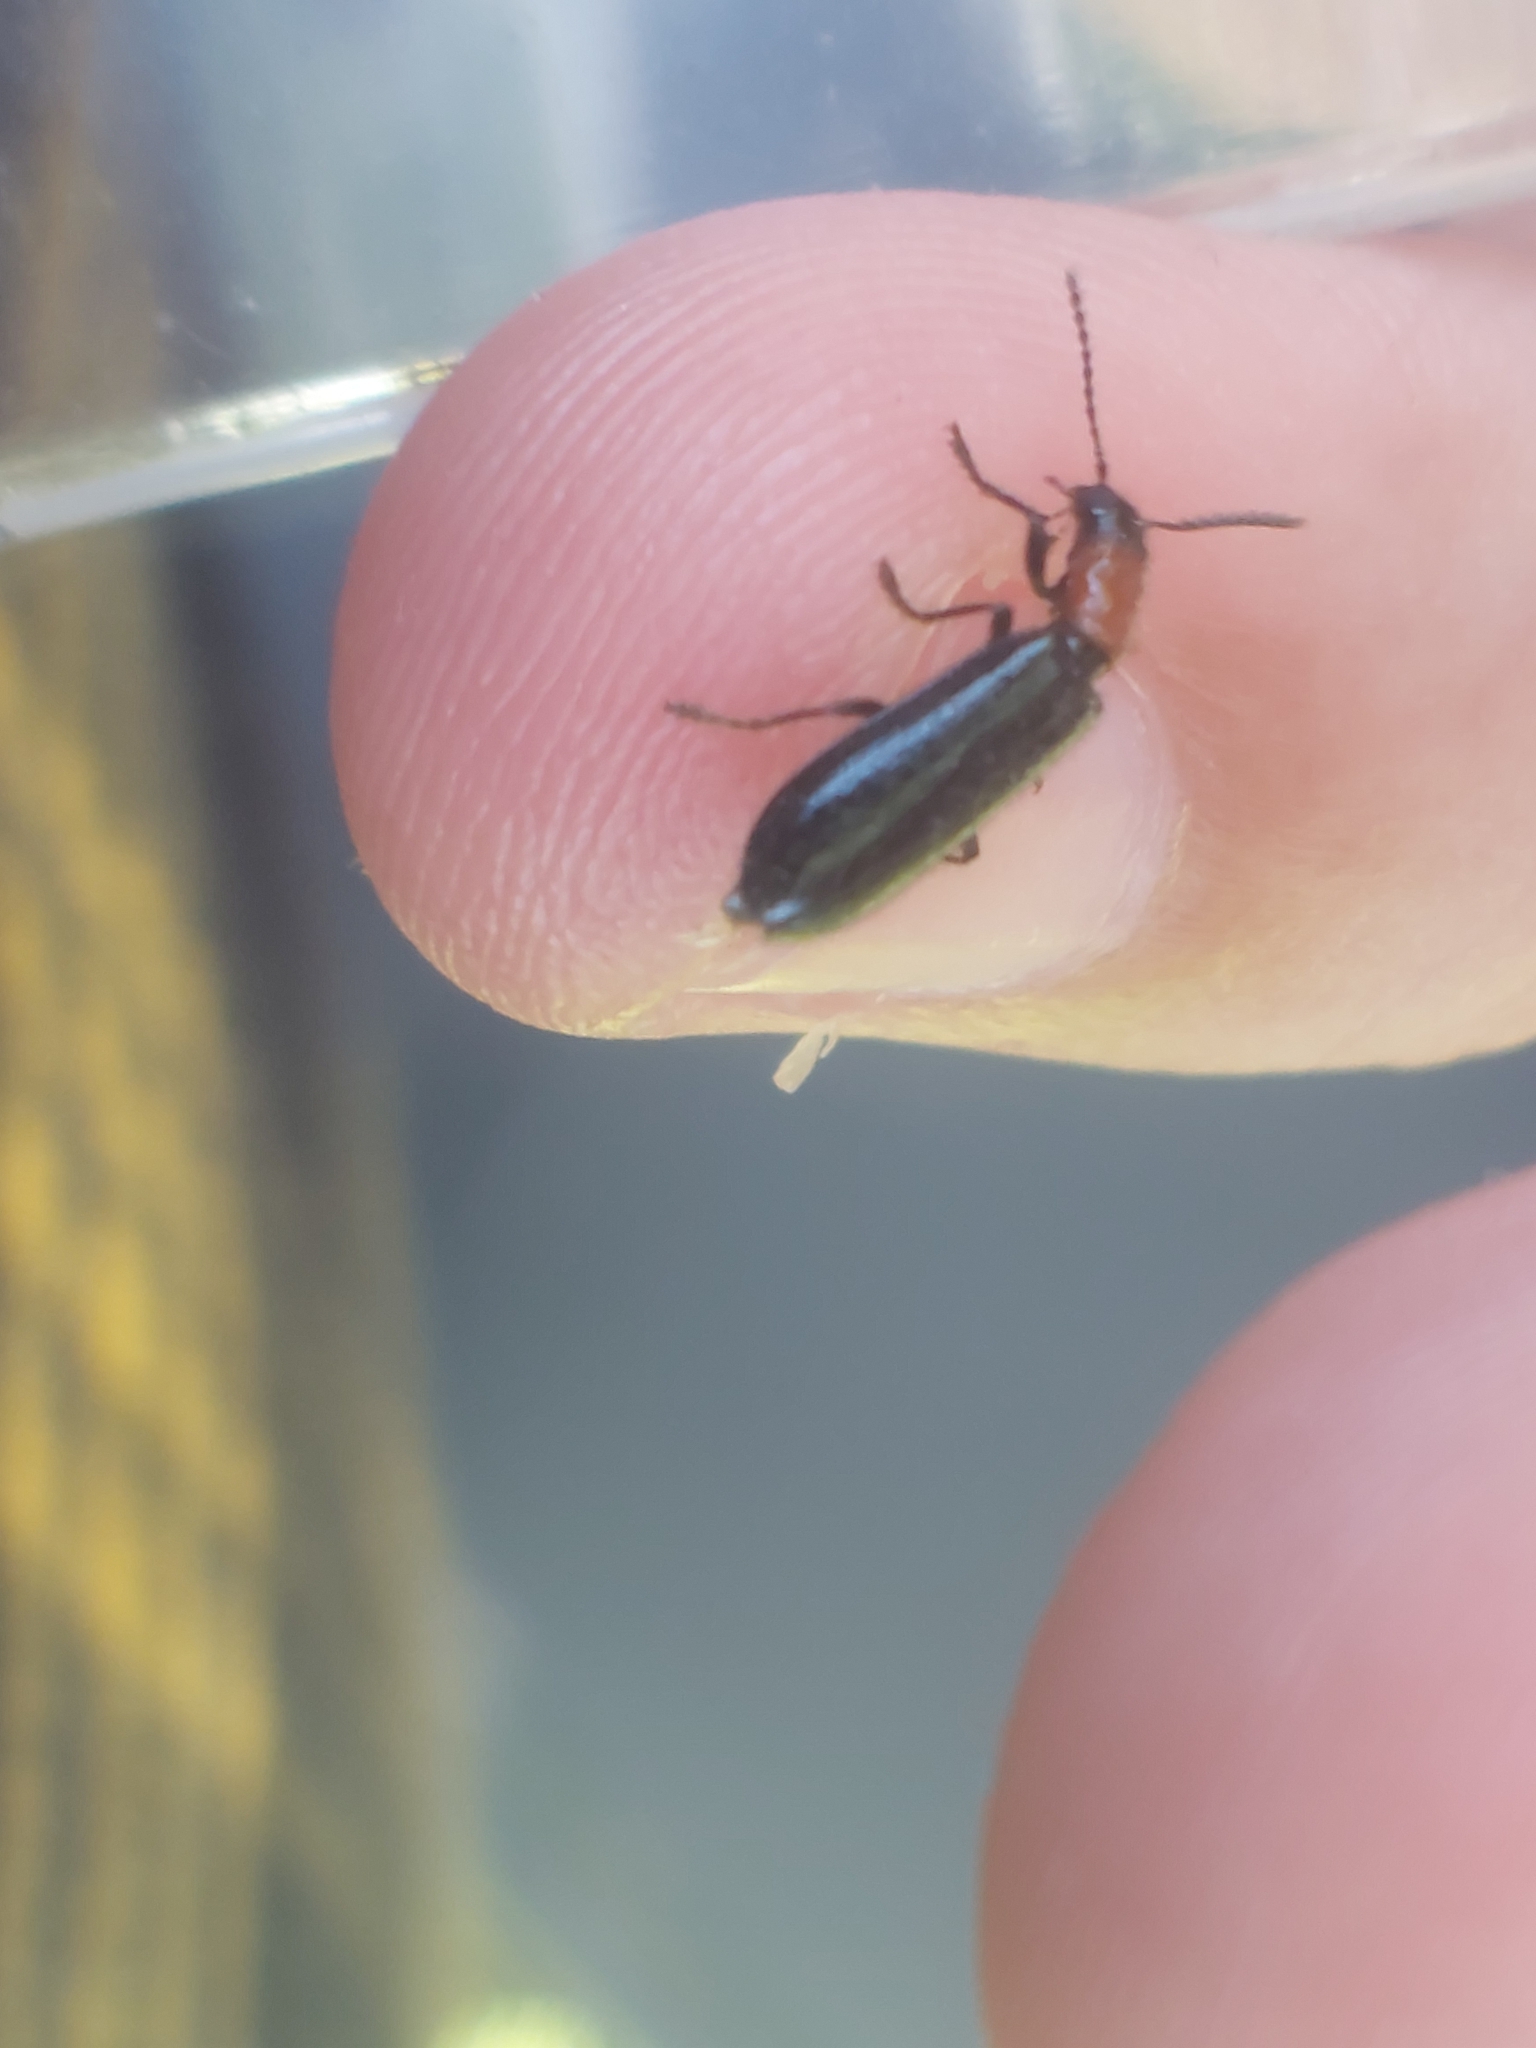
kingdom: Animalia
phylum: Arthropoda
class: Insecta
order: Coleoptera
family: Cleridae
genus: Tillus
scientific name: Tillus elongatus
